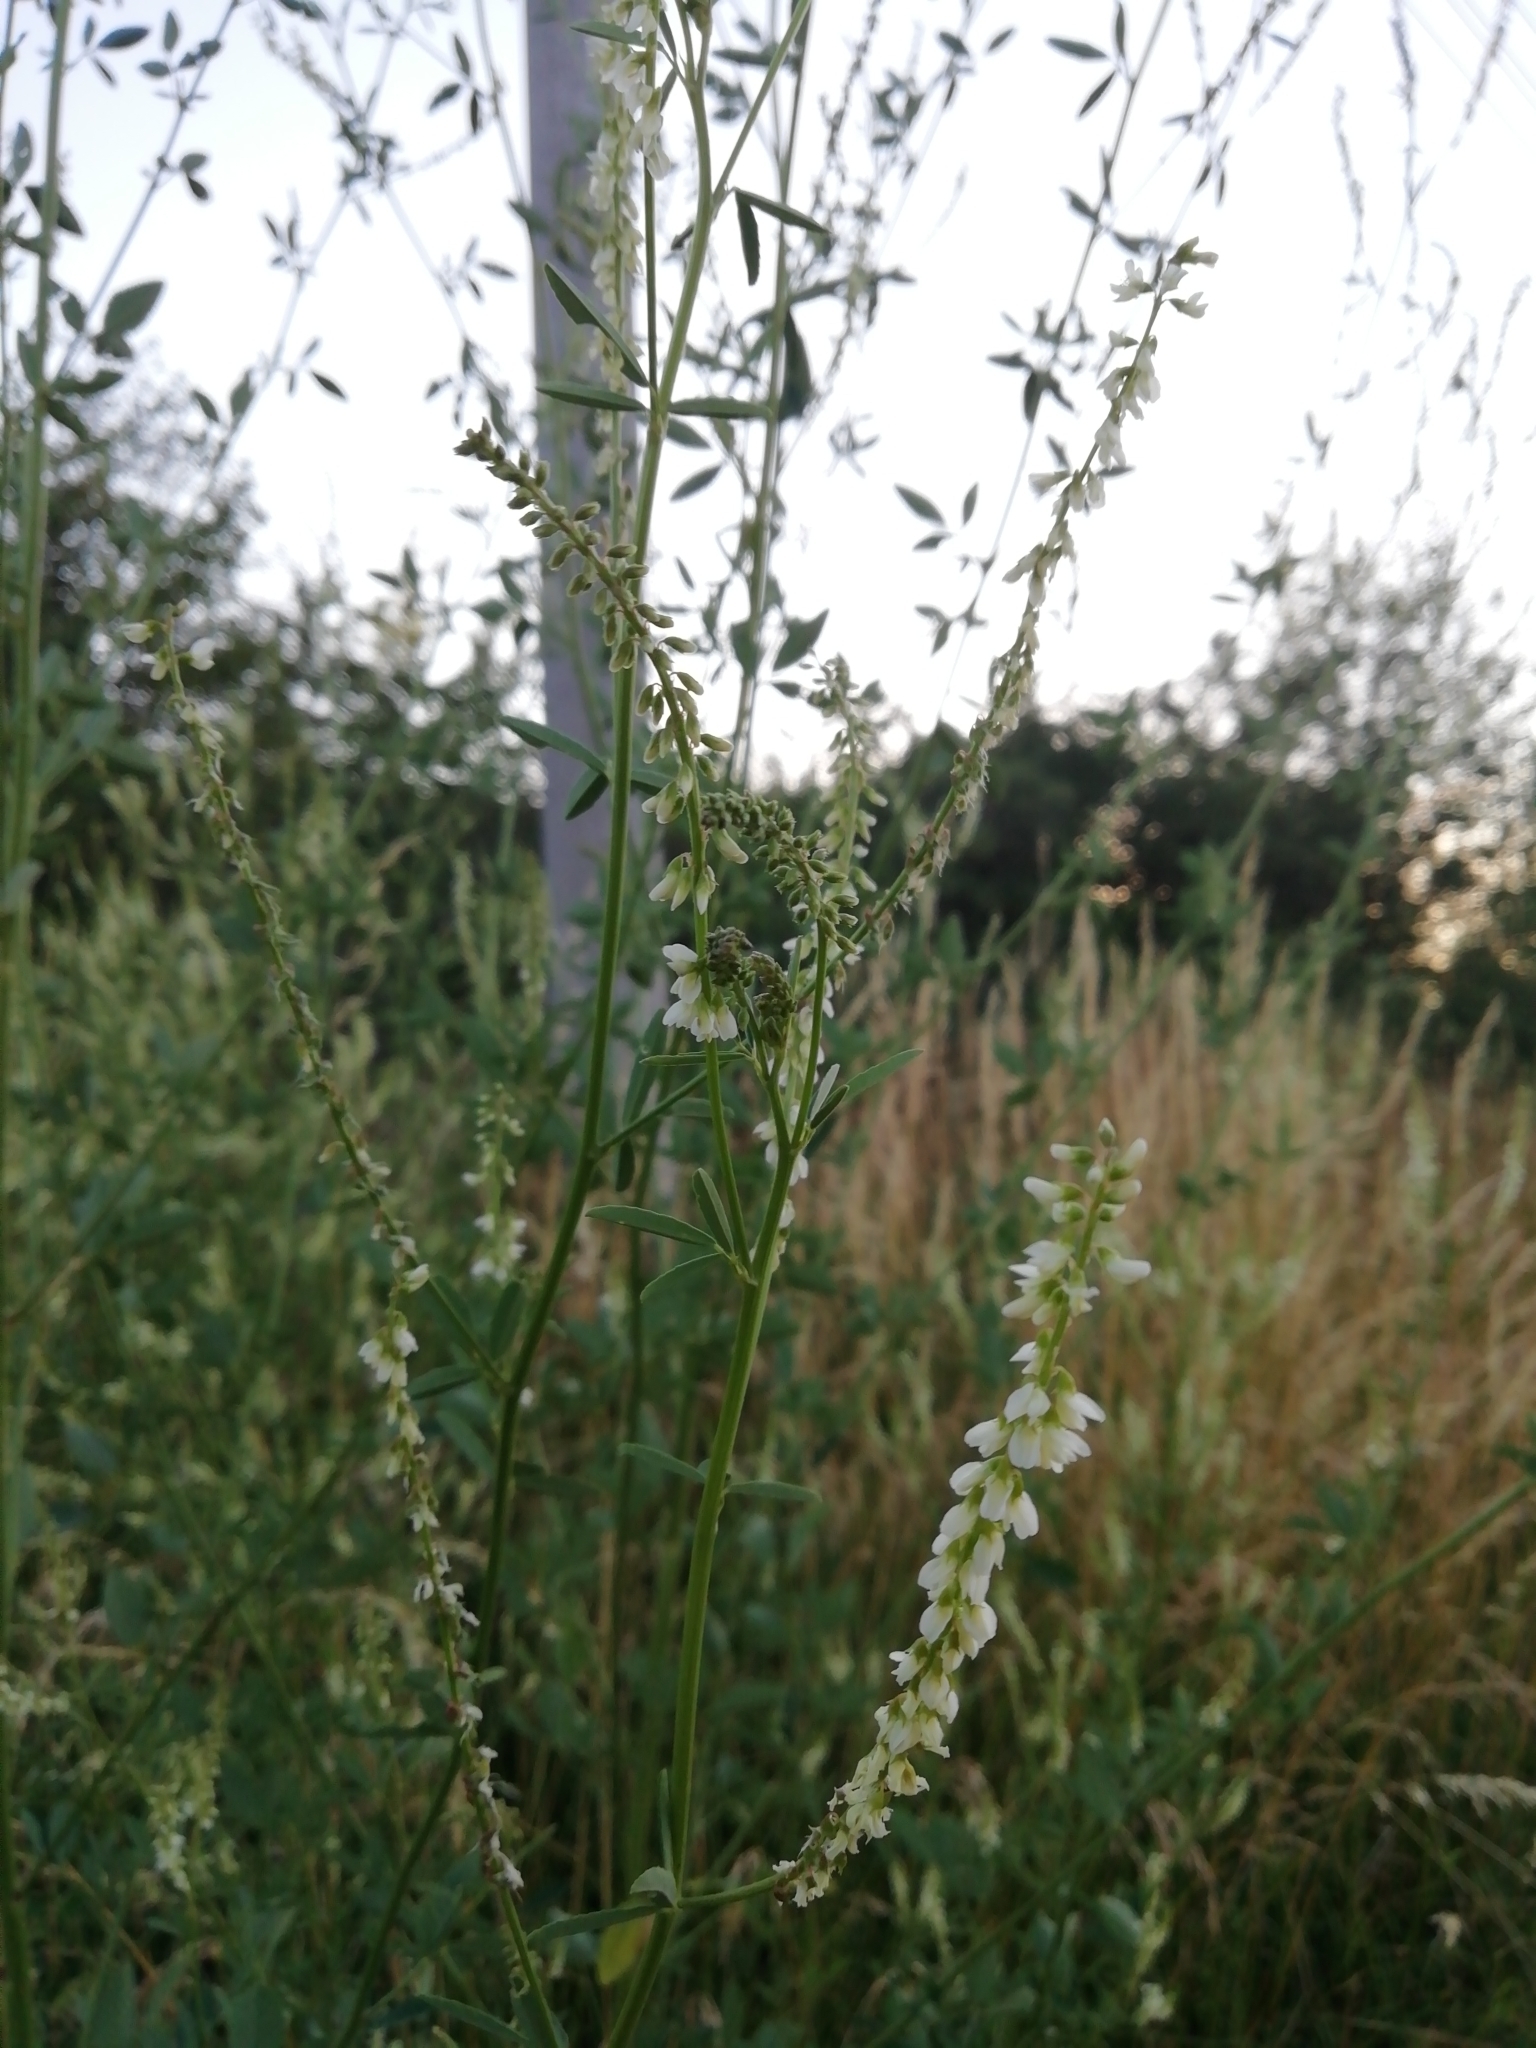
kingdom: Plantae
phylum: Tracheophyta
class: Magnoliopsida
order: Fabales
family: Fabaceae
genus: Melilotus
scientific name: Melilotus albus
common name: White melilot
